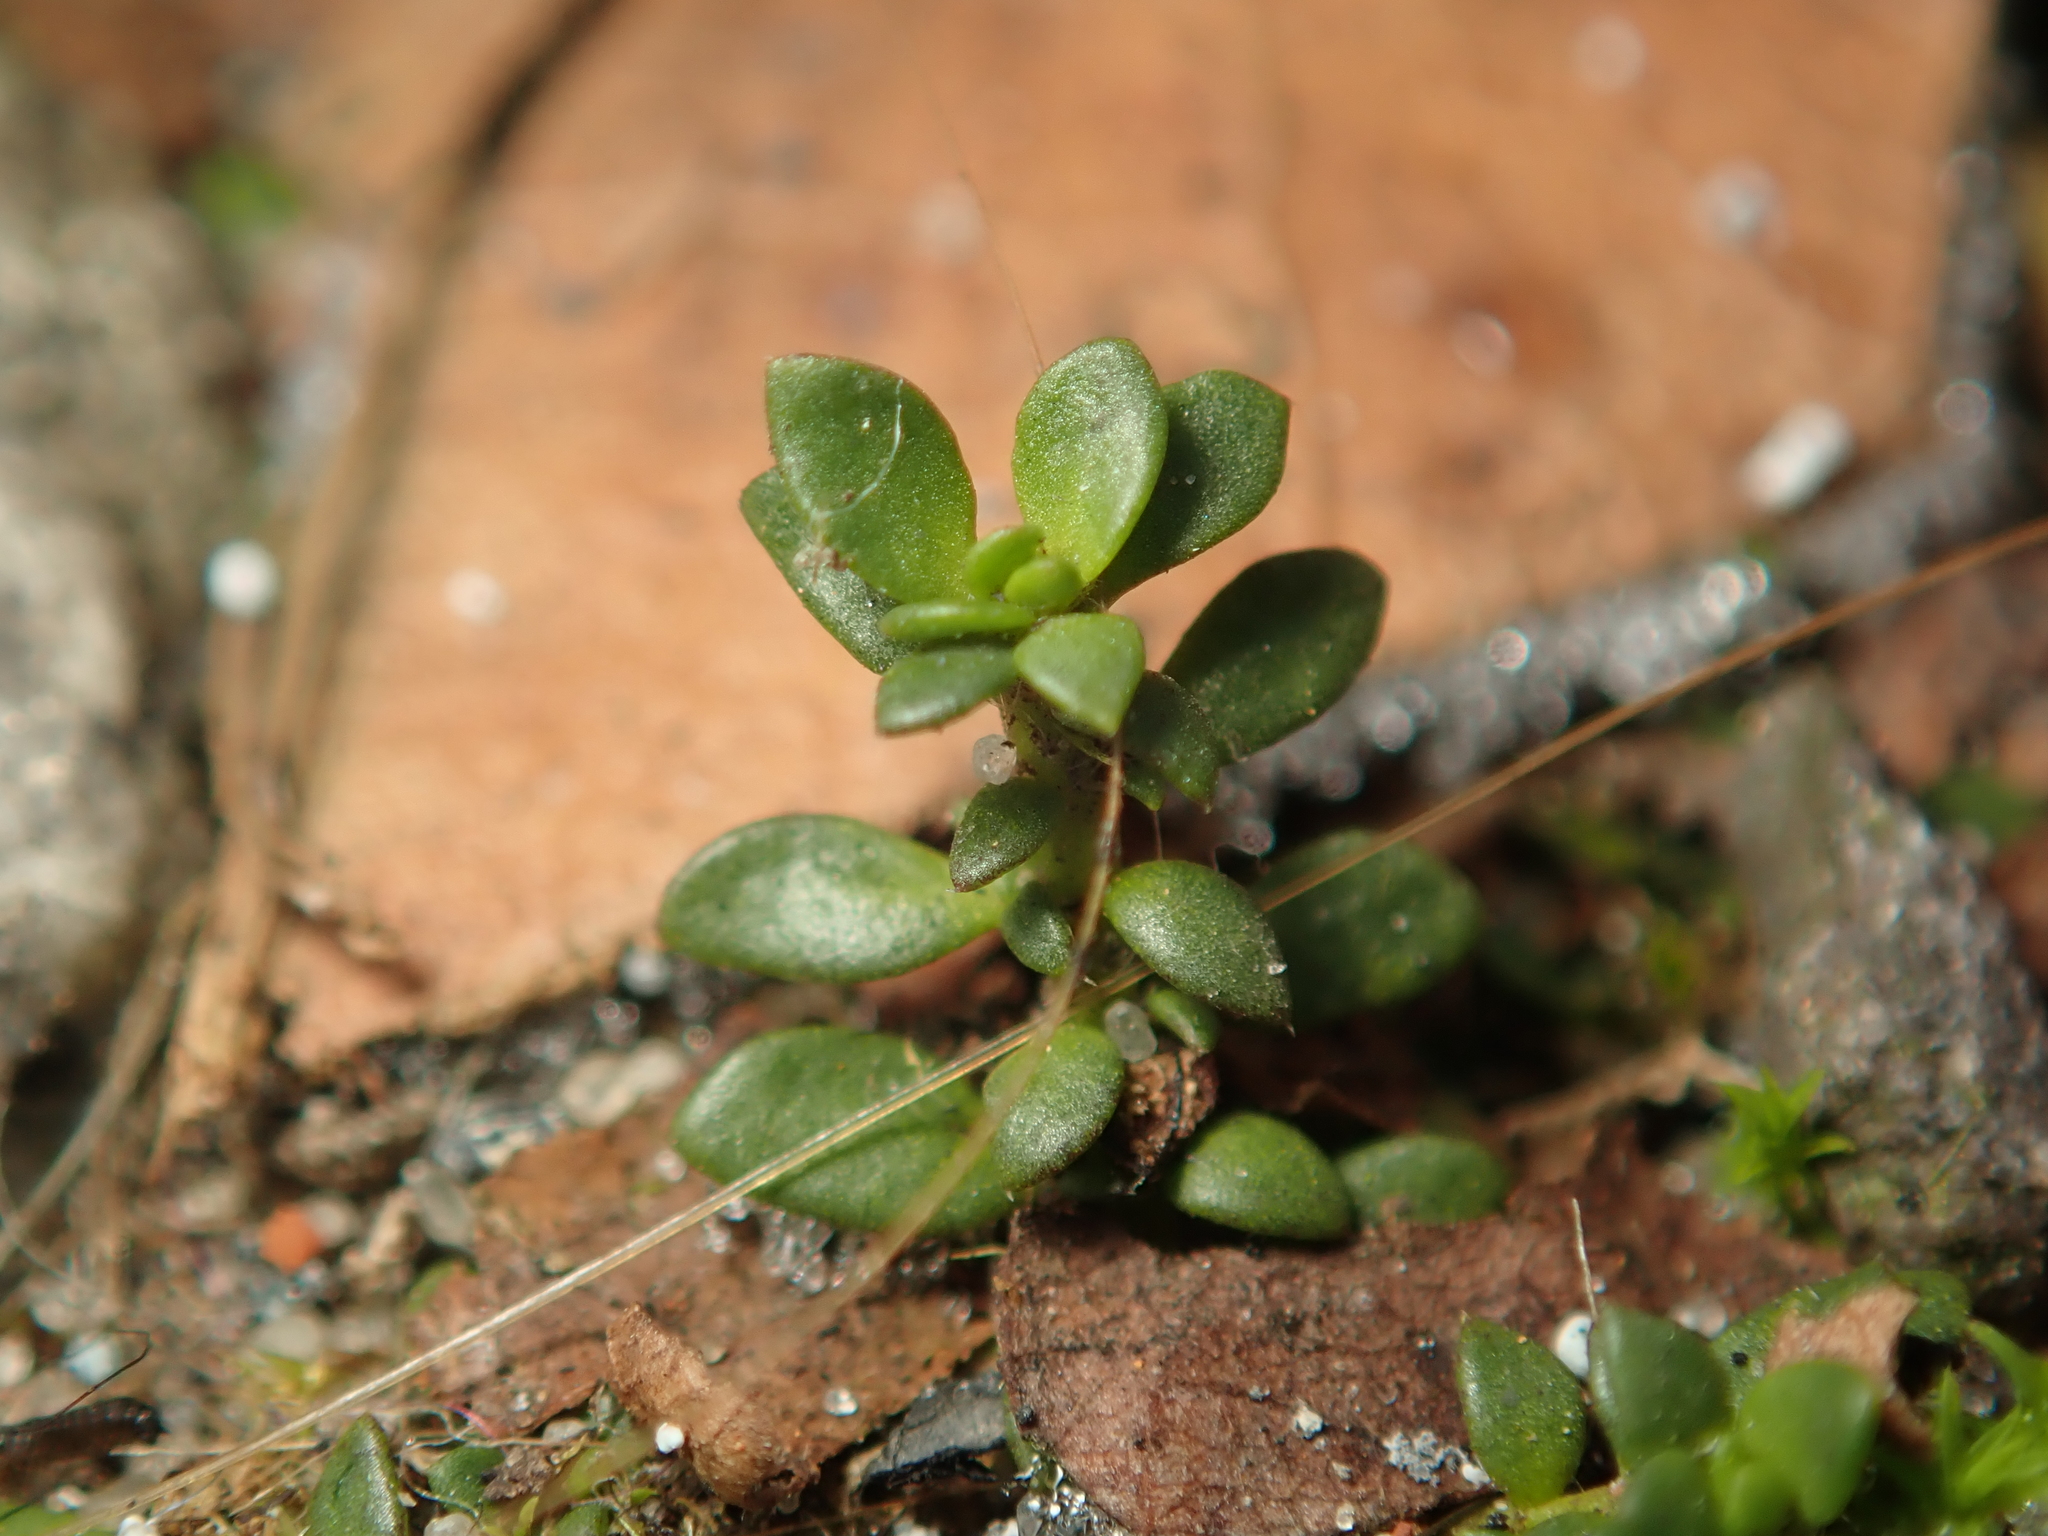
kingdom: Plantae
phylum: Tracheophyta
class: Magnoliopsida
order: Caryophyllales
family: Caryophyllaceae
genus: Herniaria
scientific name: Herniaria glabra
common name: Smooth rupturewort
